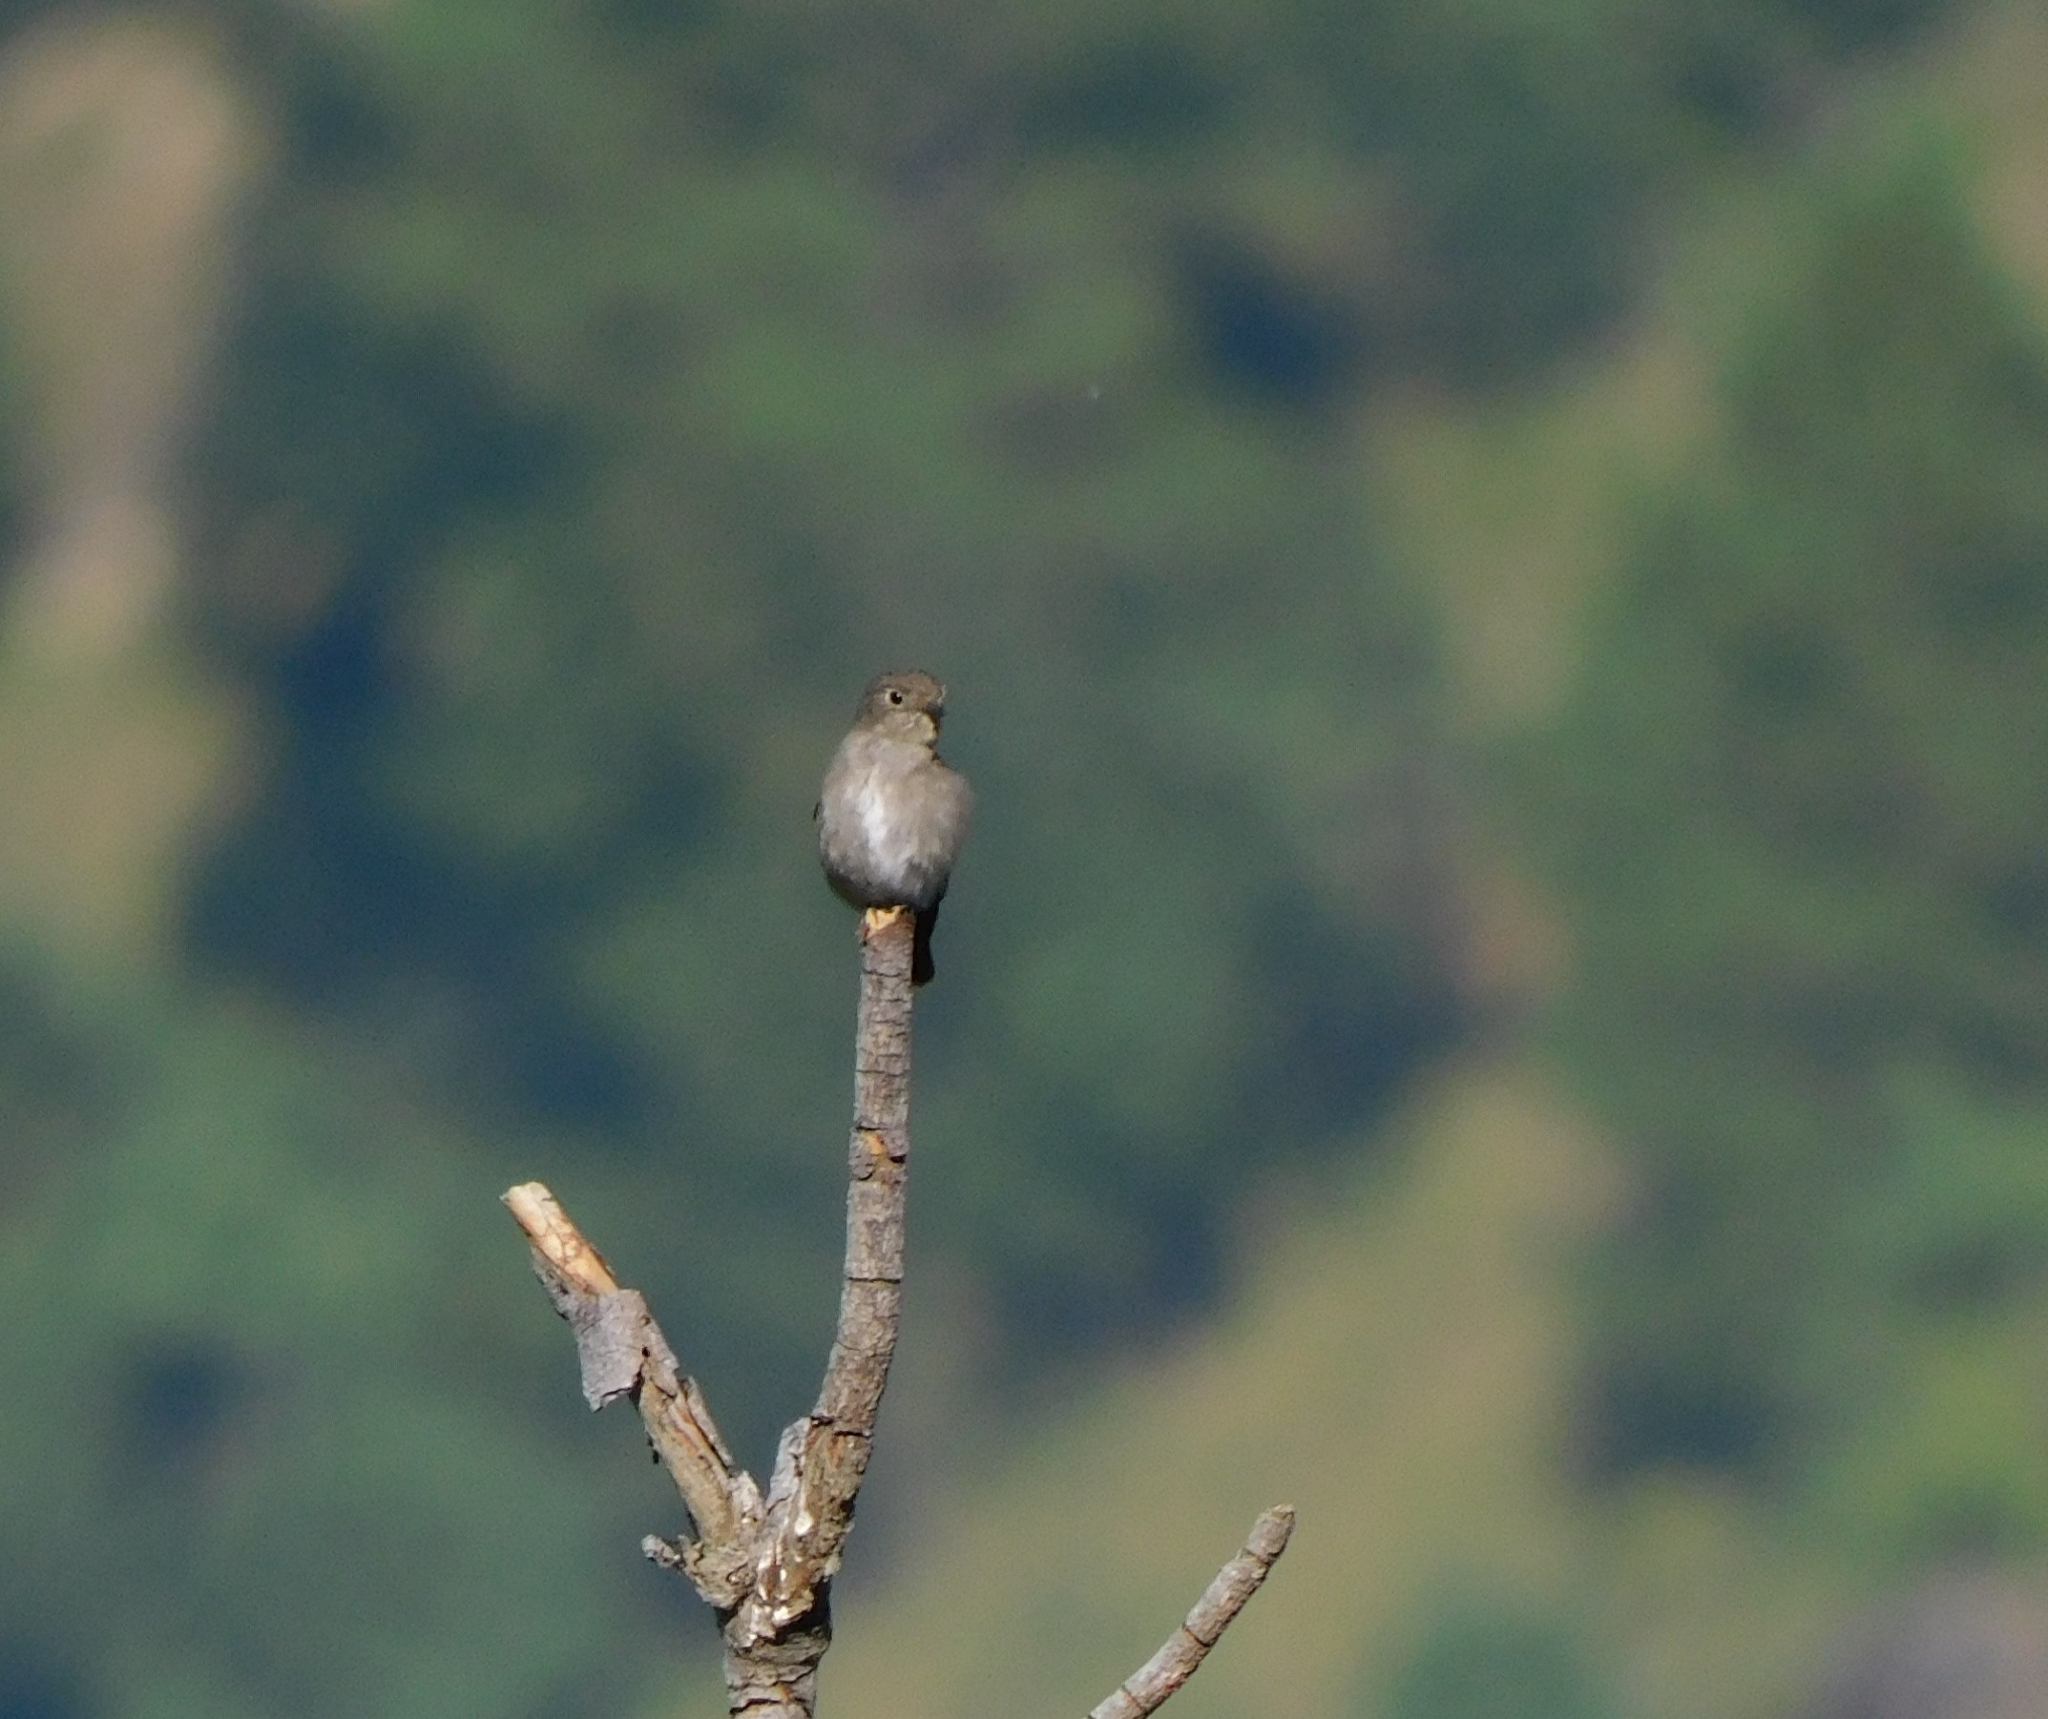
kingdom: Animalia
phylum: Chordata
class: Aves
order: Passeriformes
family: Muscicapidae
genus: Muscicapa
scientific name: Muscicapa sibirica
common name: Dark-sided flycatcher
